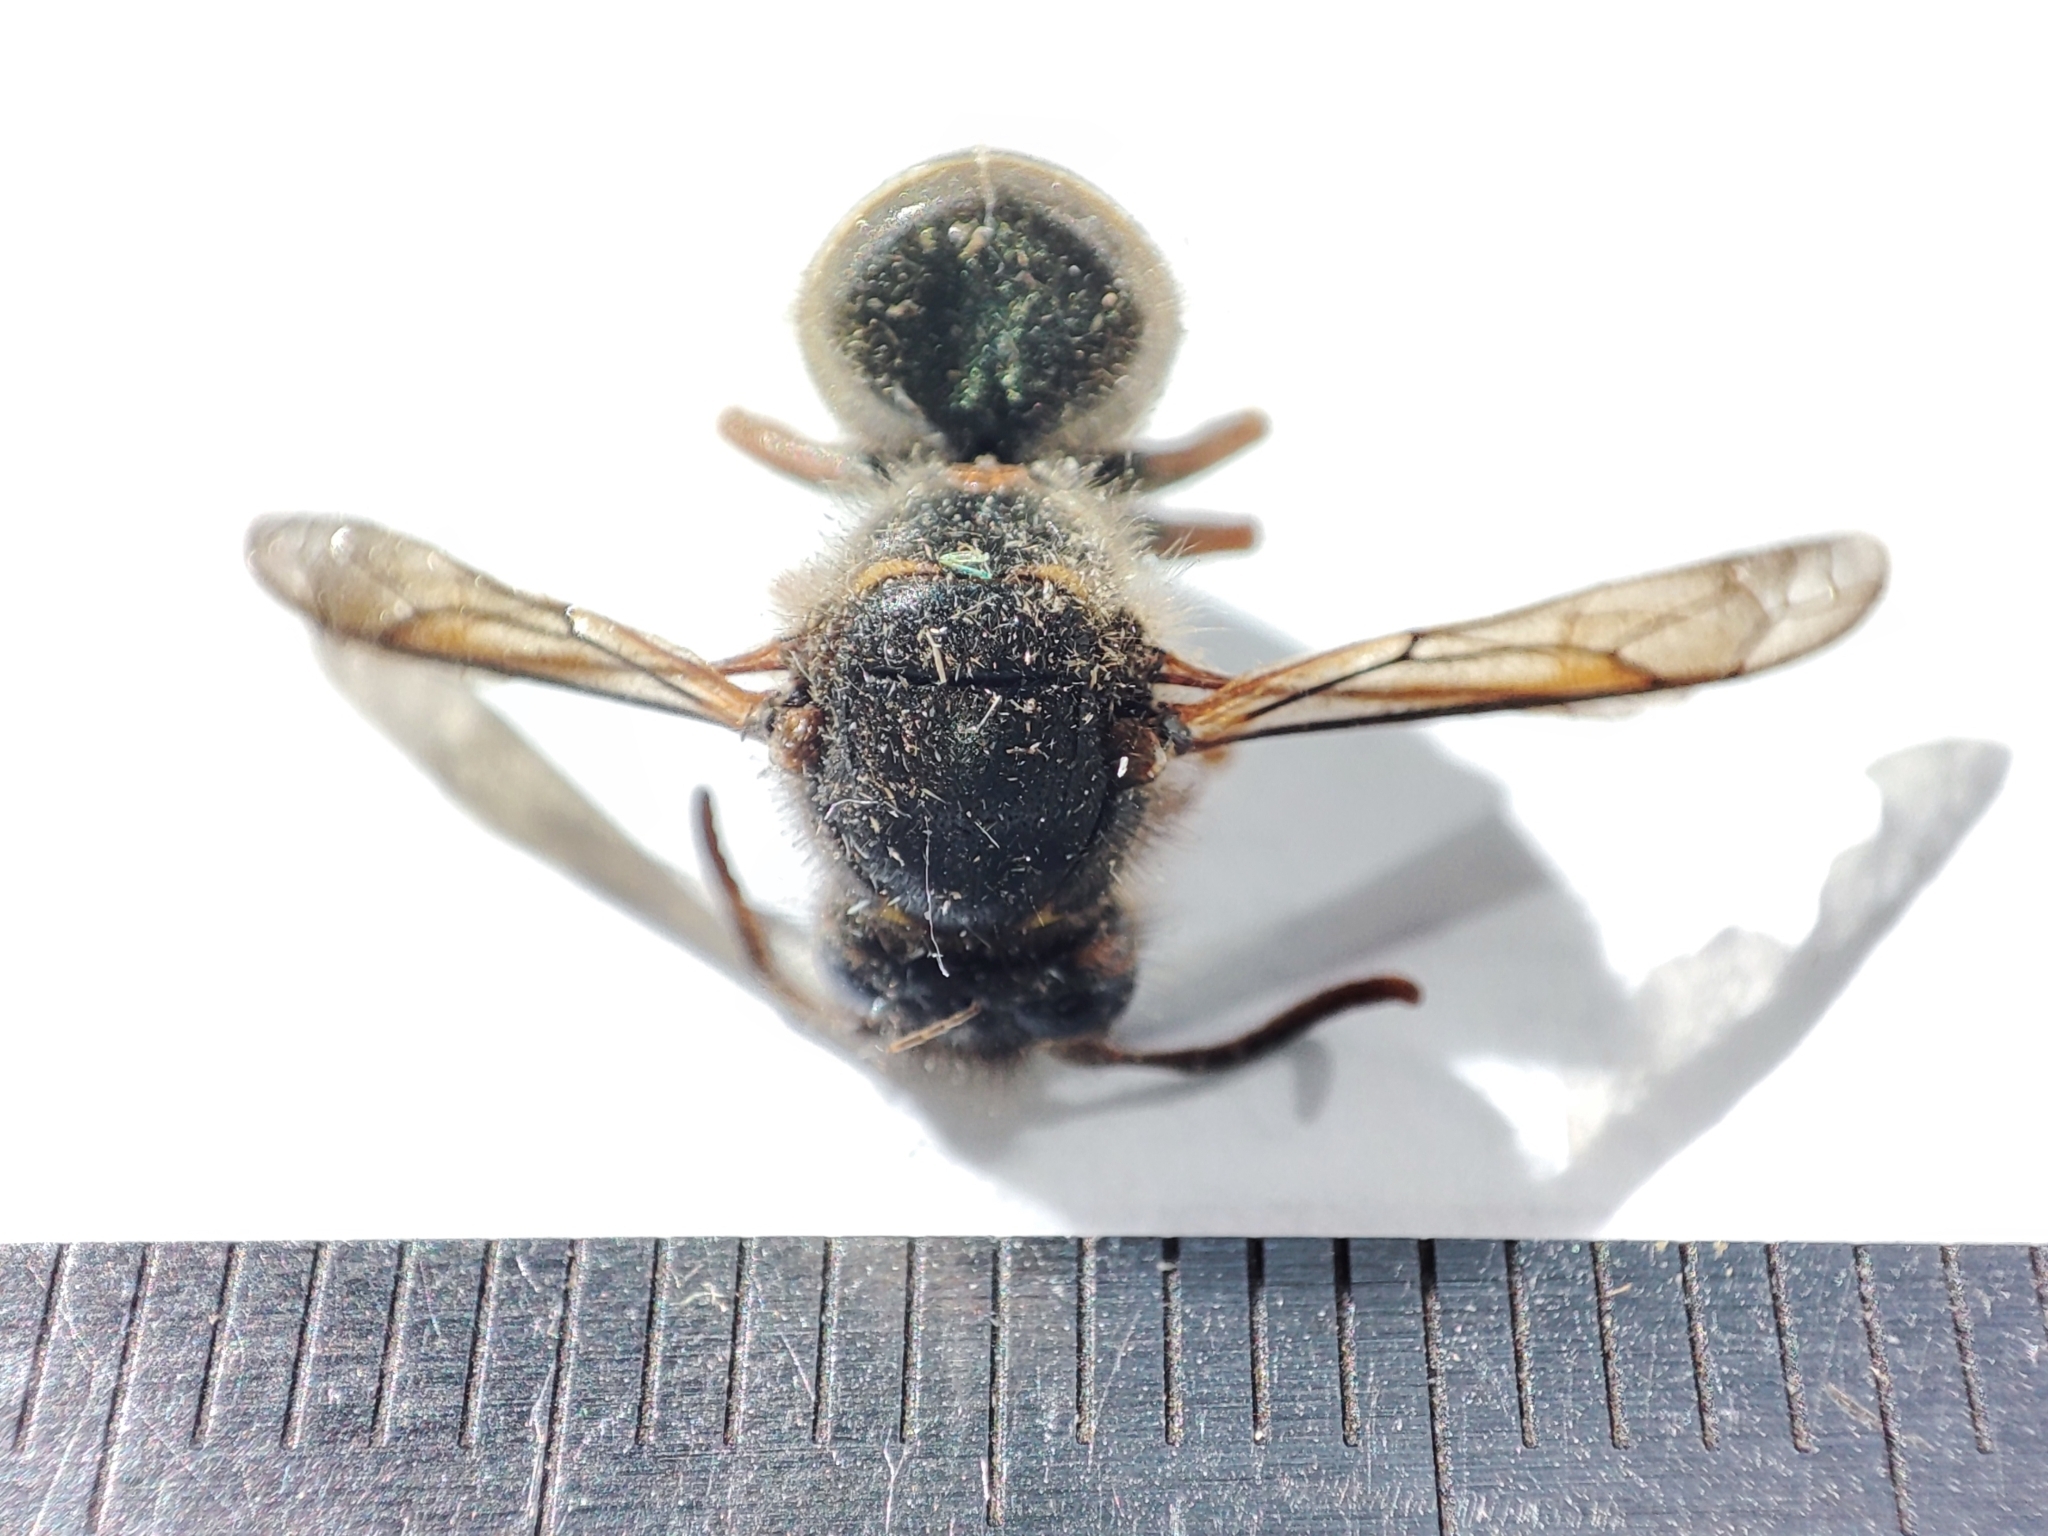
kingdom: Animalia
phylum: Arthropoda
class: Insecta
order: Hymenoptera
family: Vespidae
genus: Dolichovespula
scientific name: Dolichovespula media
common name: Median wasp
